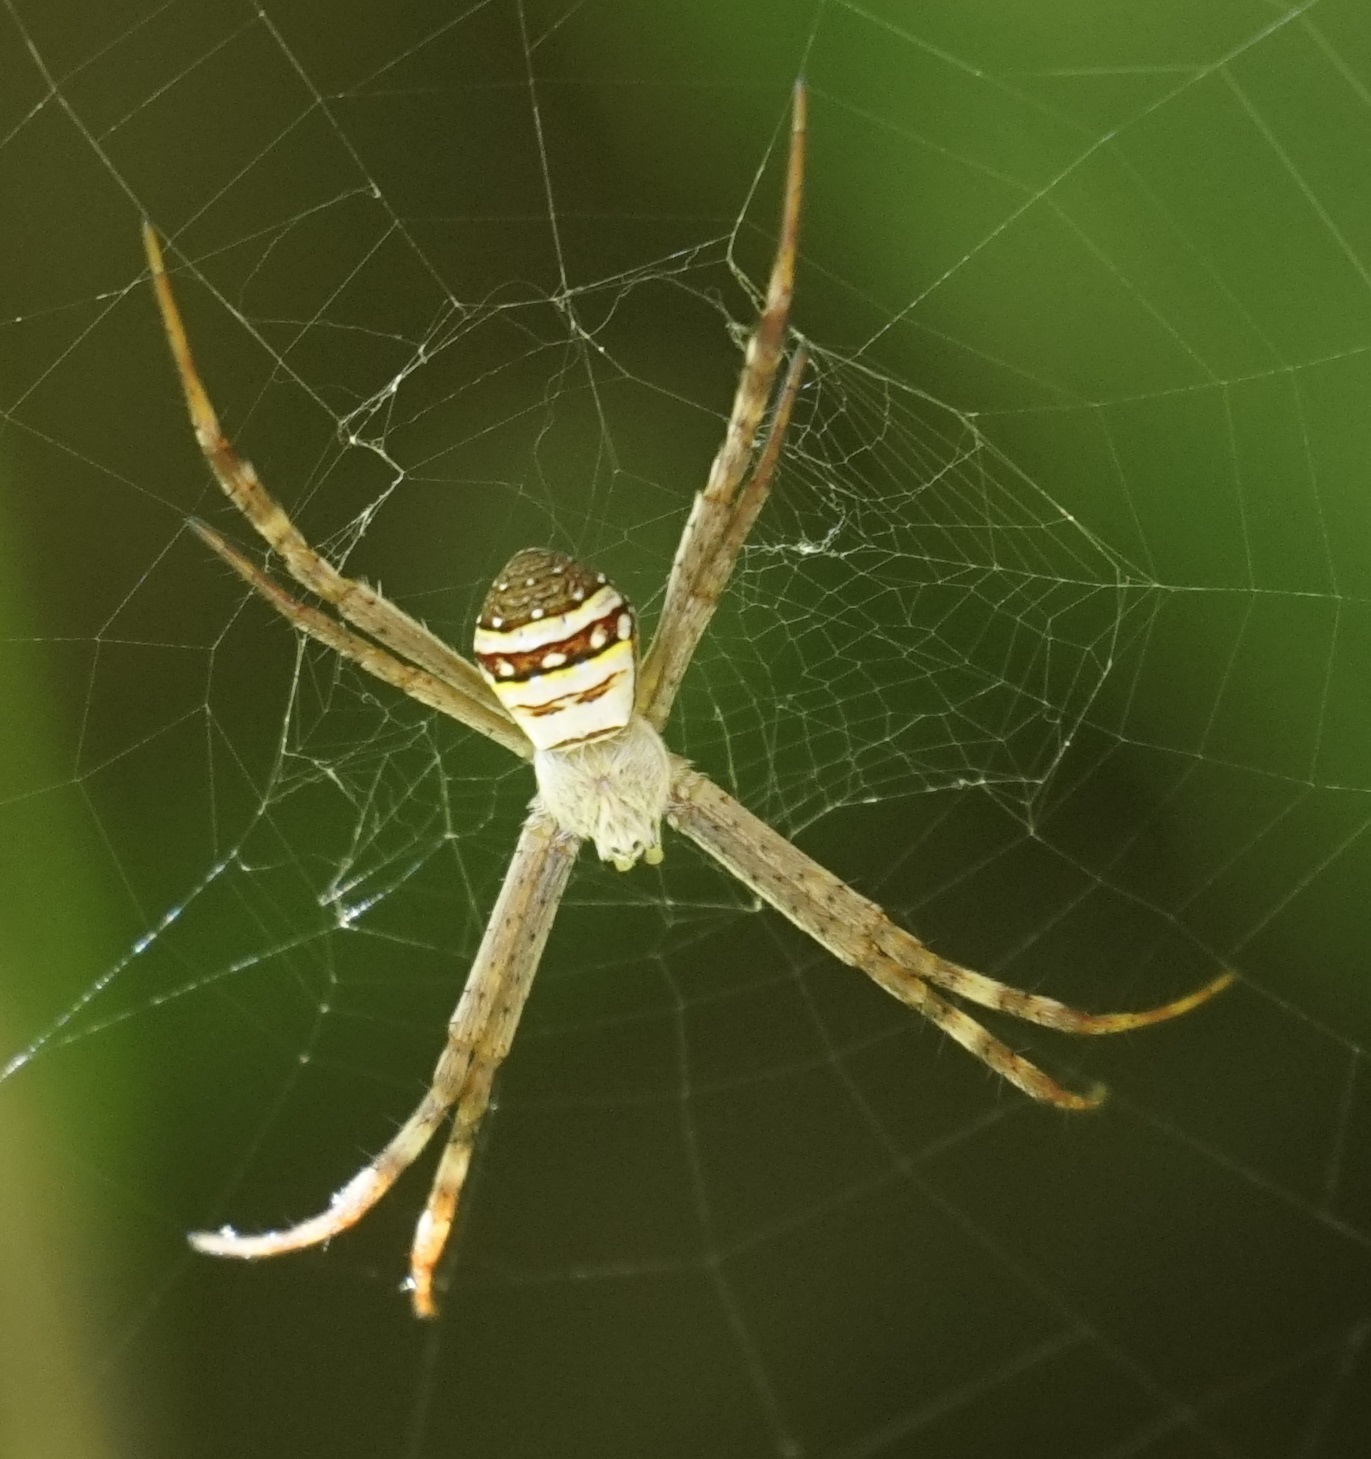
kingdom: Animalia
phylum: Arthropoda
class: Arachnida
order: Araneae
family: Araneidae
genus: Argiope
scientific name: Argiope keyserlingi
